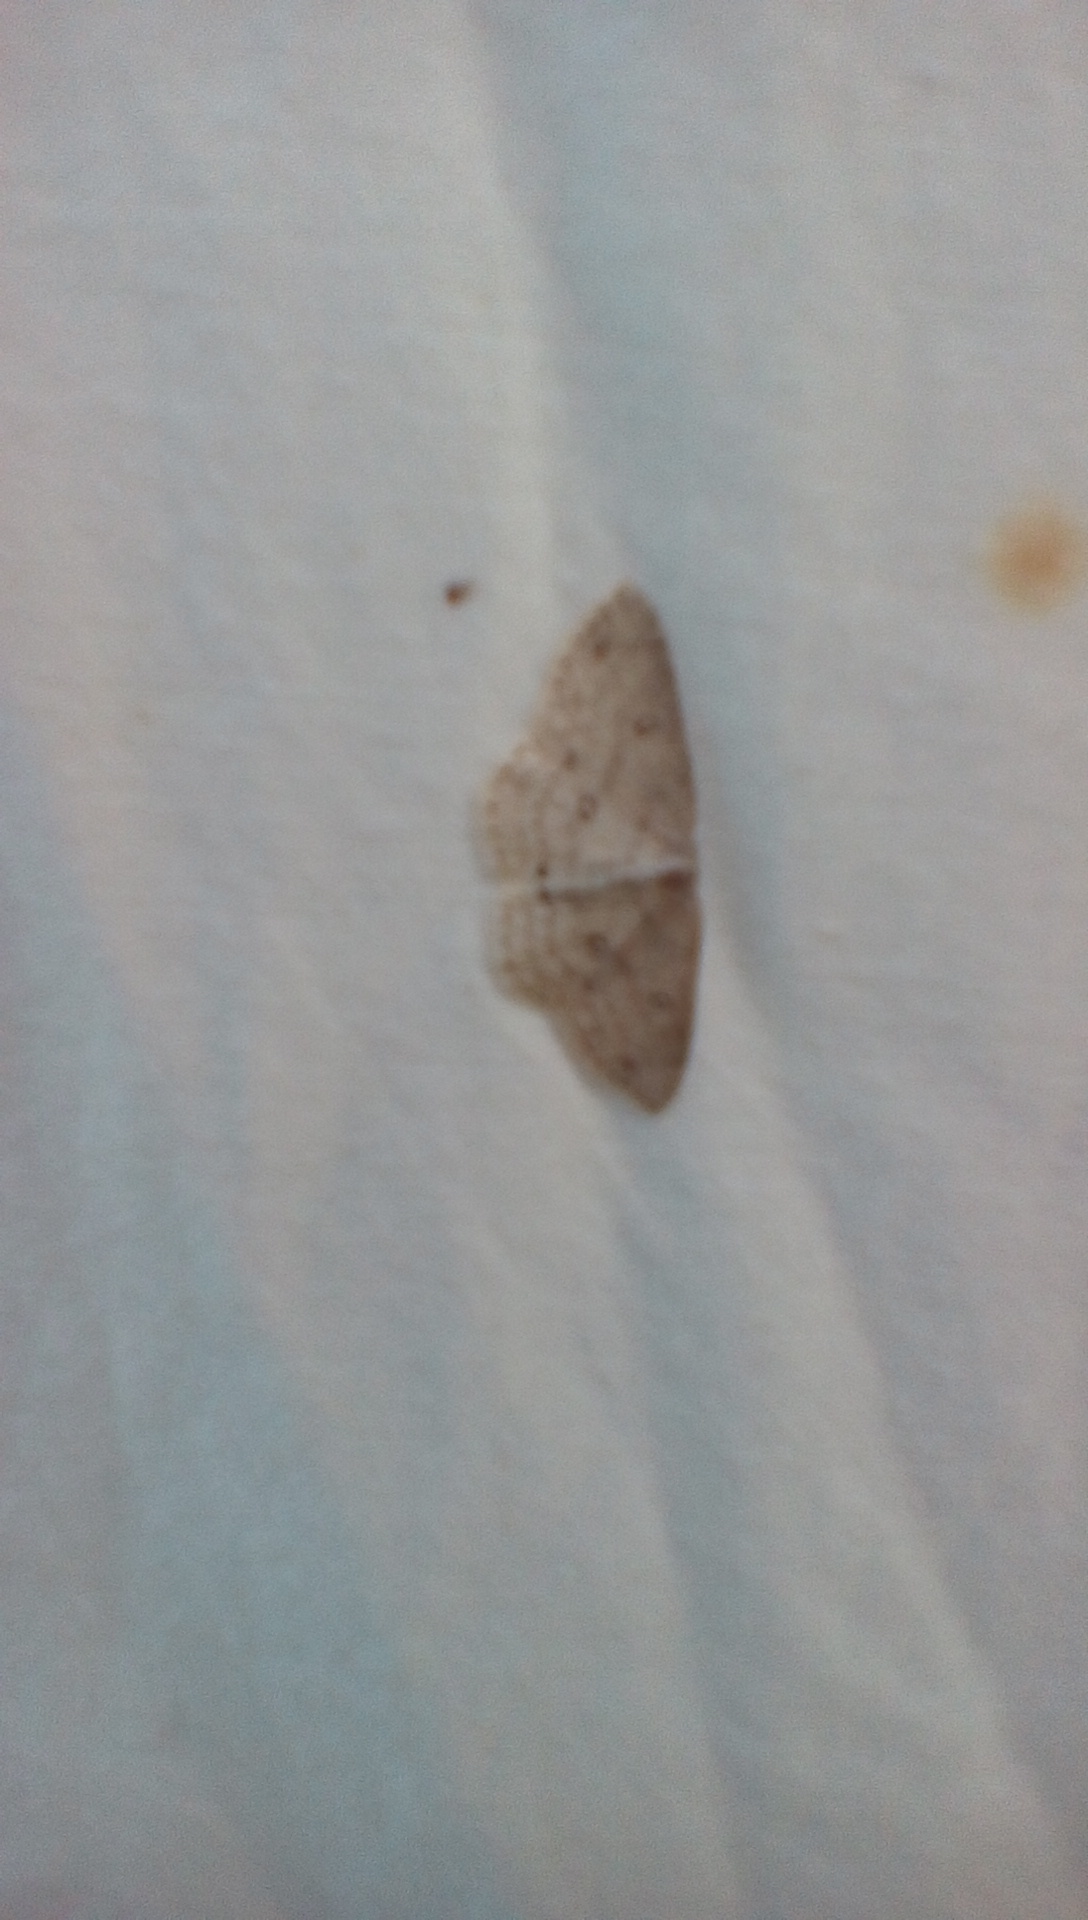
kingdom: Animalia
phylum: Arthropoda
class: Insecta
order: Lepidoptera
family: Geometridae
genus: Cyclophora
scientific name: Cyclophora pendulinaria
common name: Sweet fern geometer
